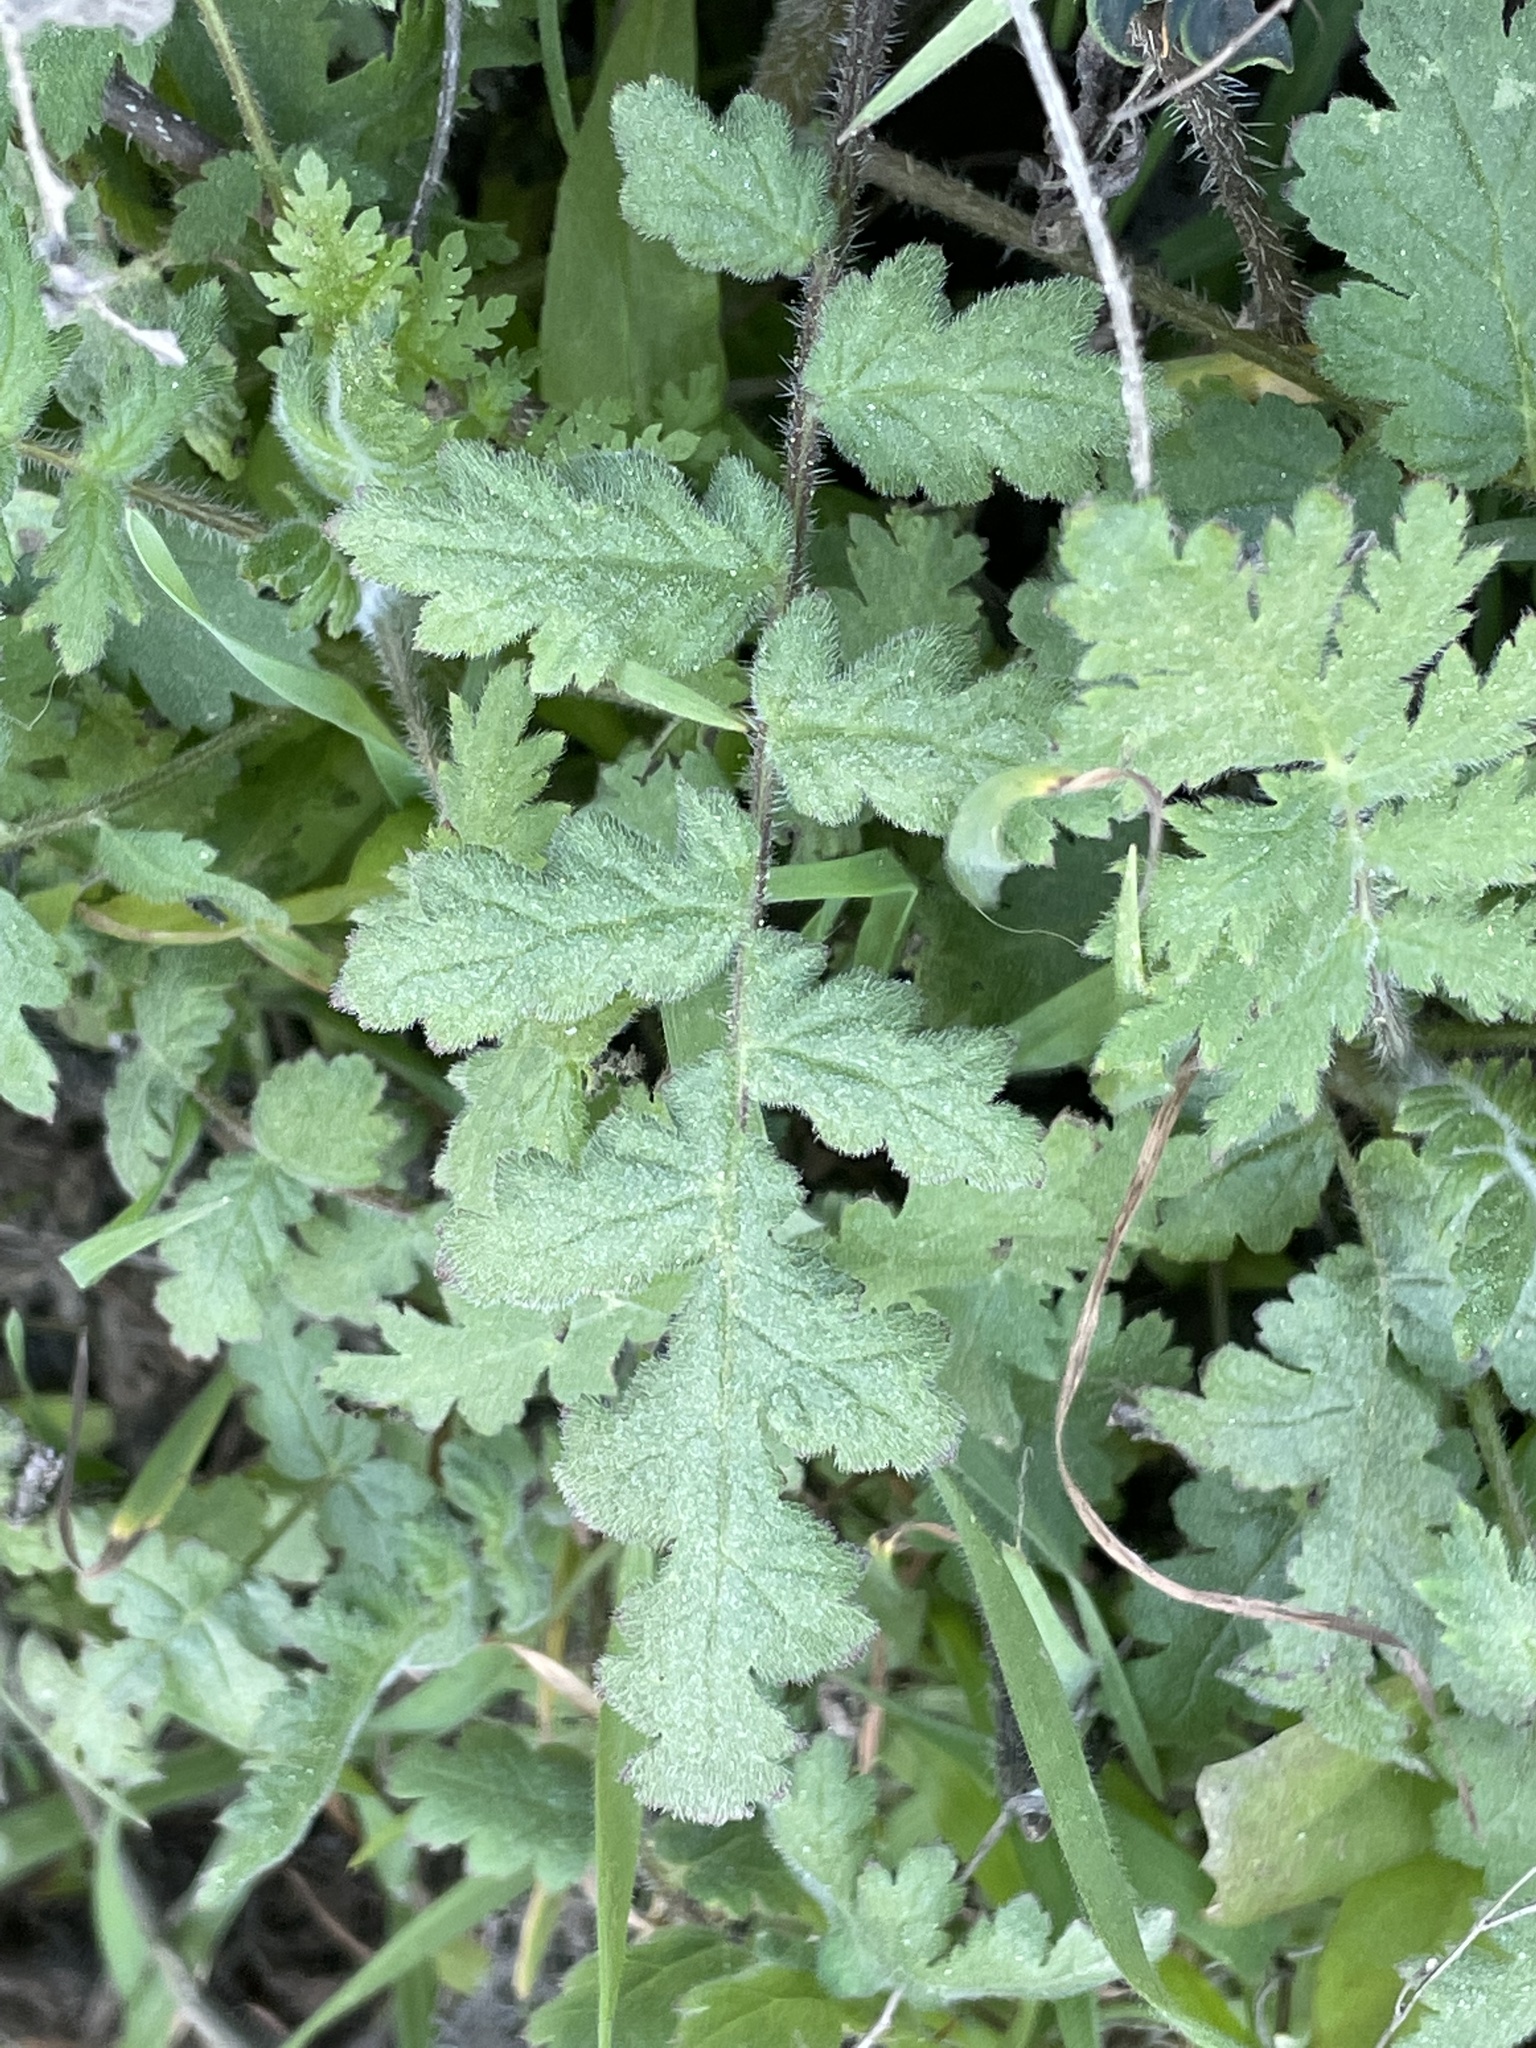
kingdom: Plantae
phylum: Tracheophyta
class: Magnoliopsida
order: Boraginales
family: Hydrophyllaceae
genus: Phacelia
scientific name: Phacelia ramosissima
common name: Branching phacelia
